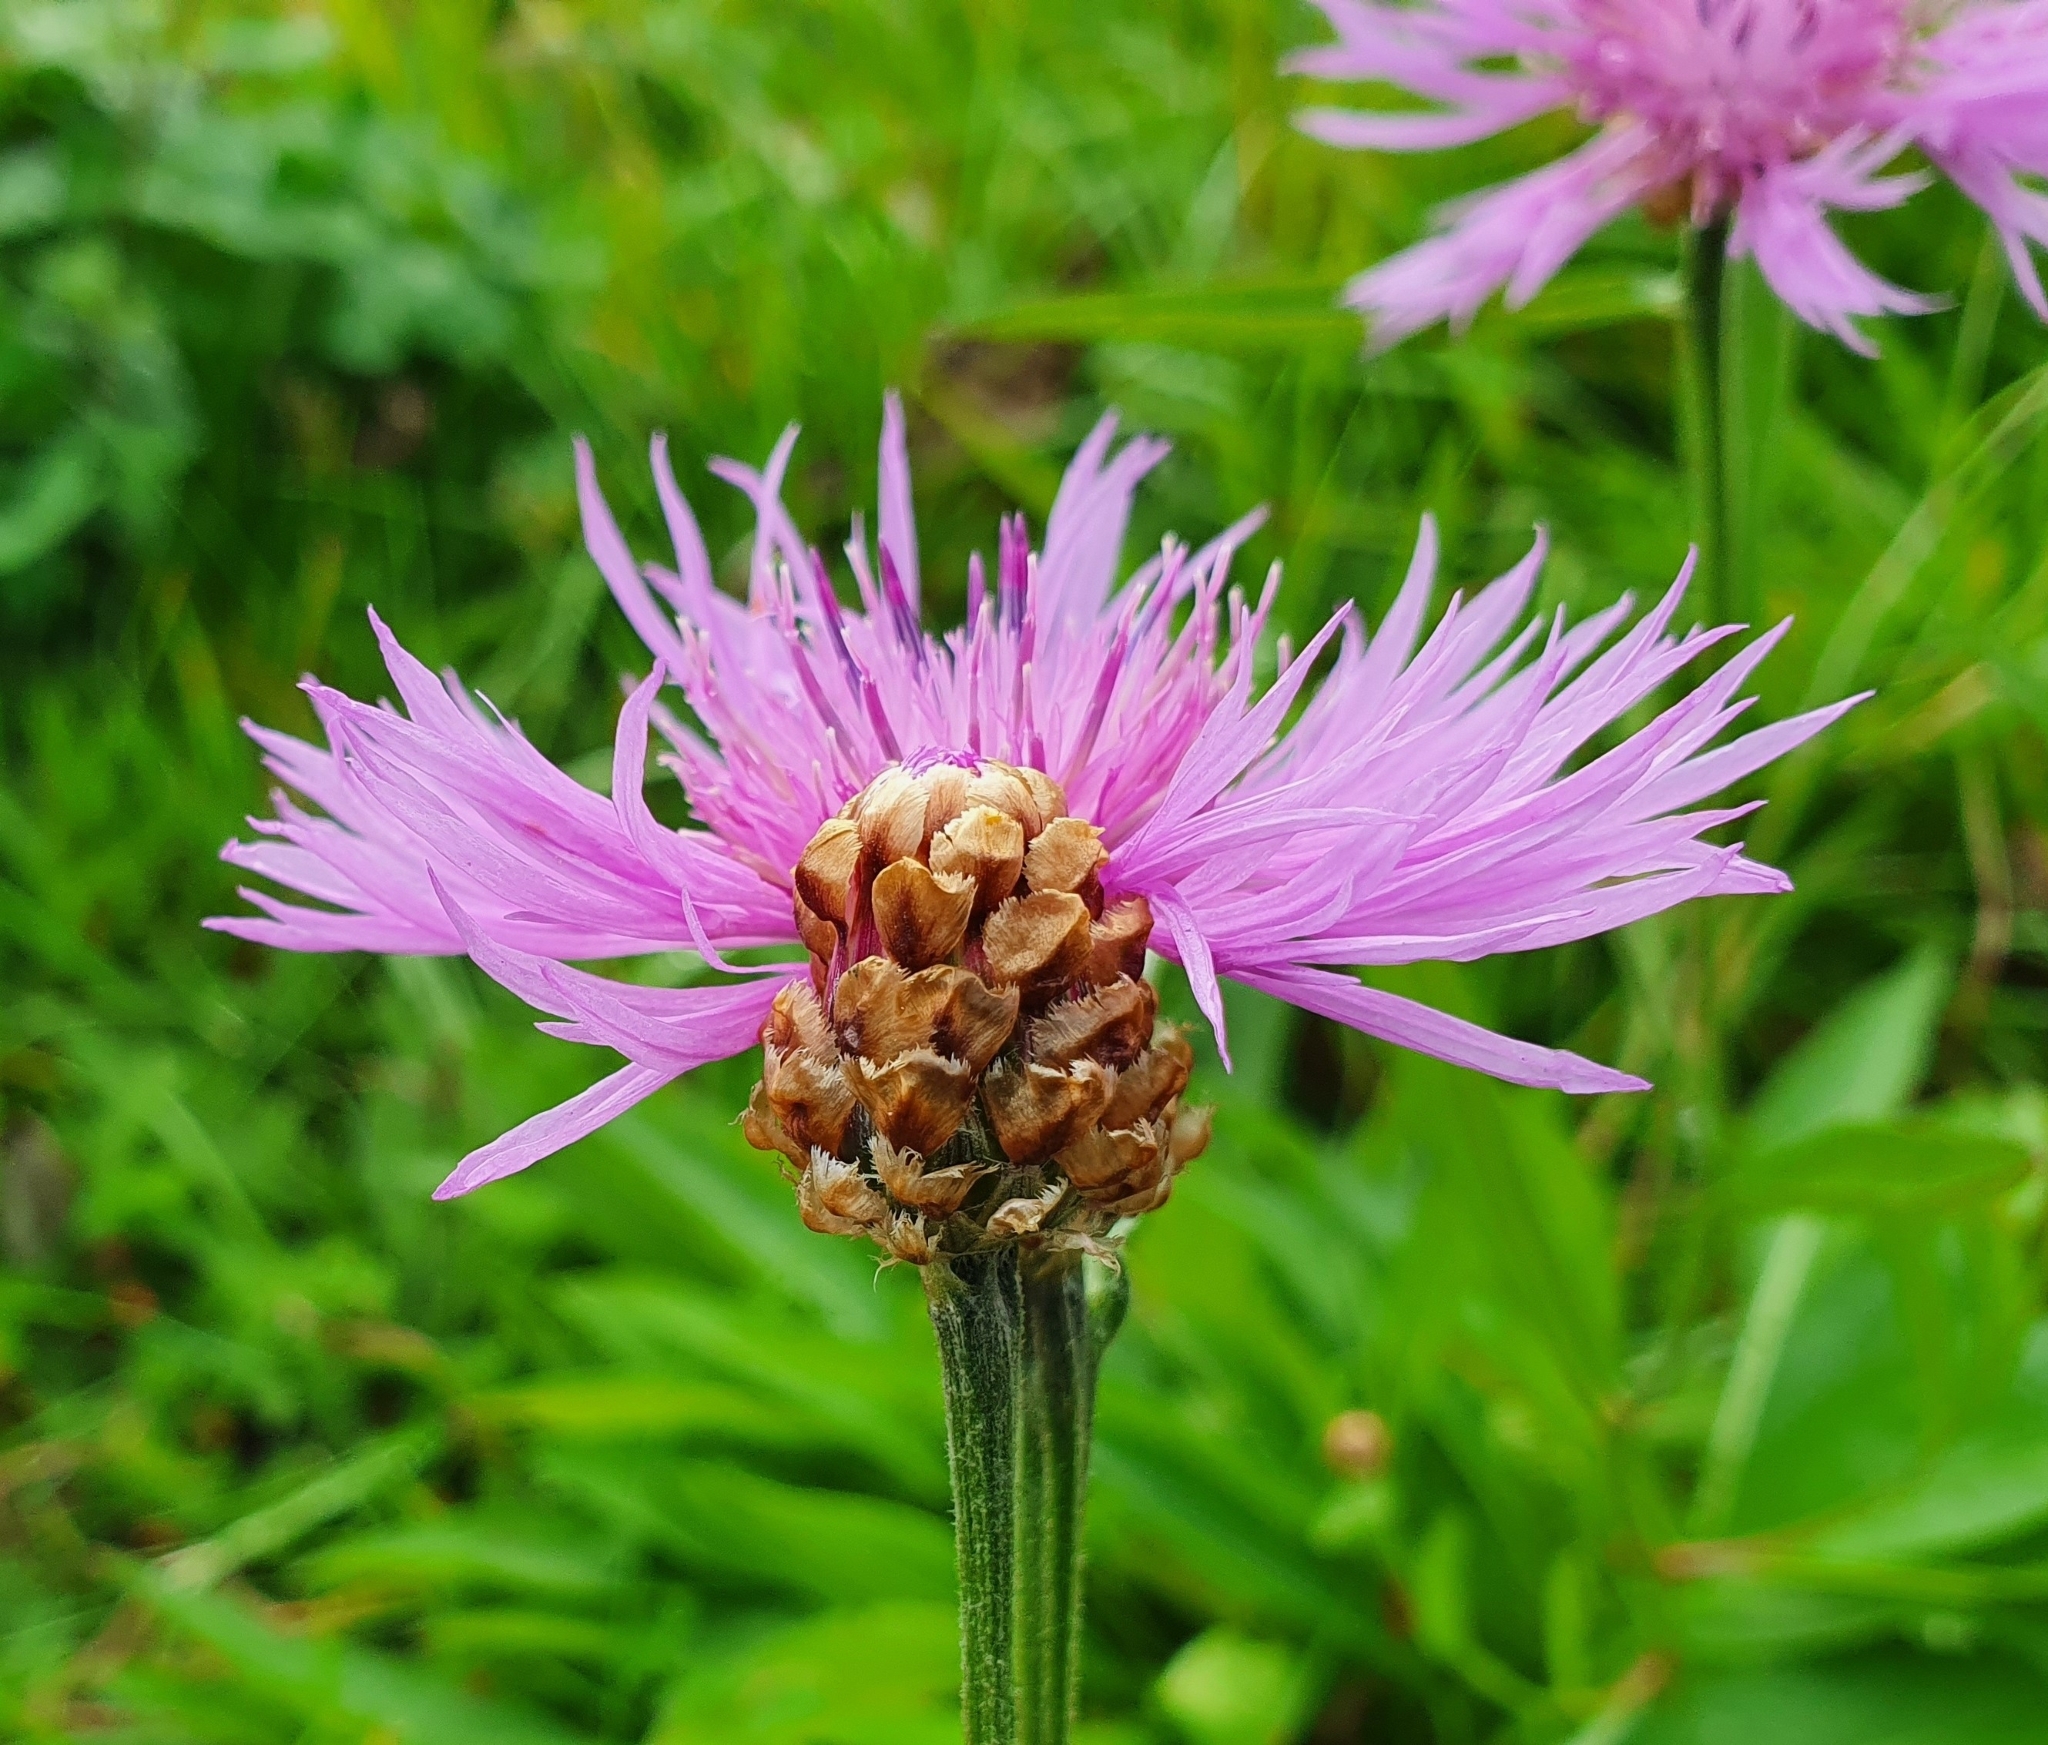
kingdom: Plantae
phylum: Tracheophyta
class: Magnoliopsida
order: Asterales
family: Asteraceae
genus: Centaurea
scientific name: Centaurea jacea
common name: Brown knapweed
